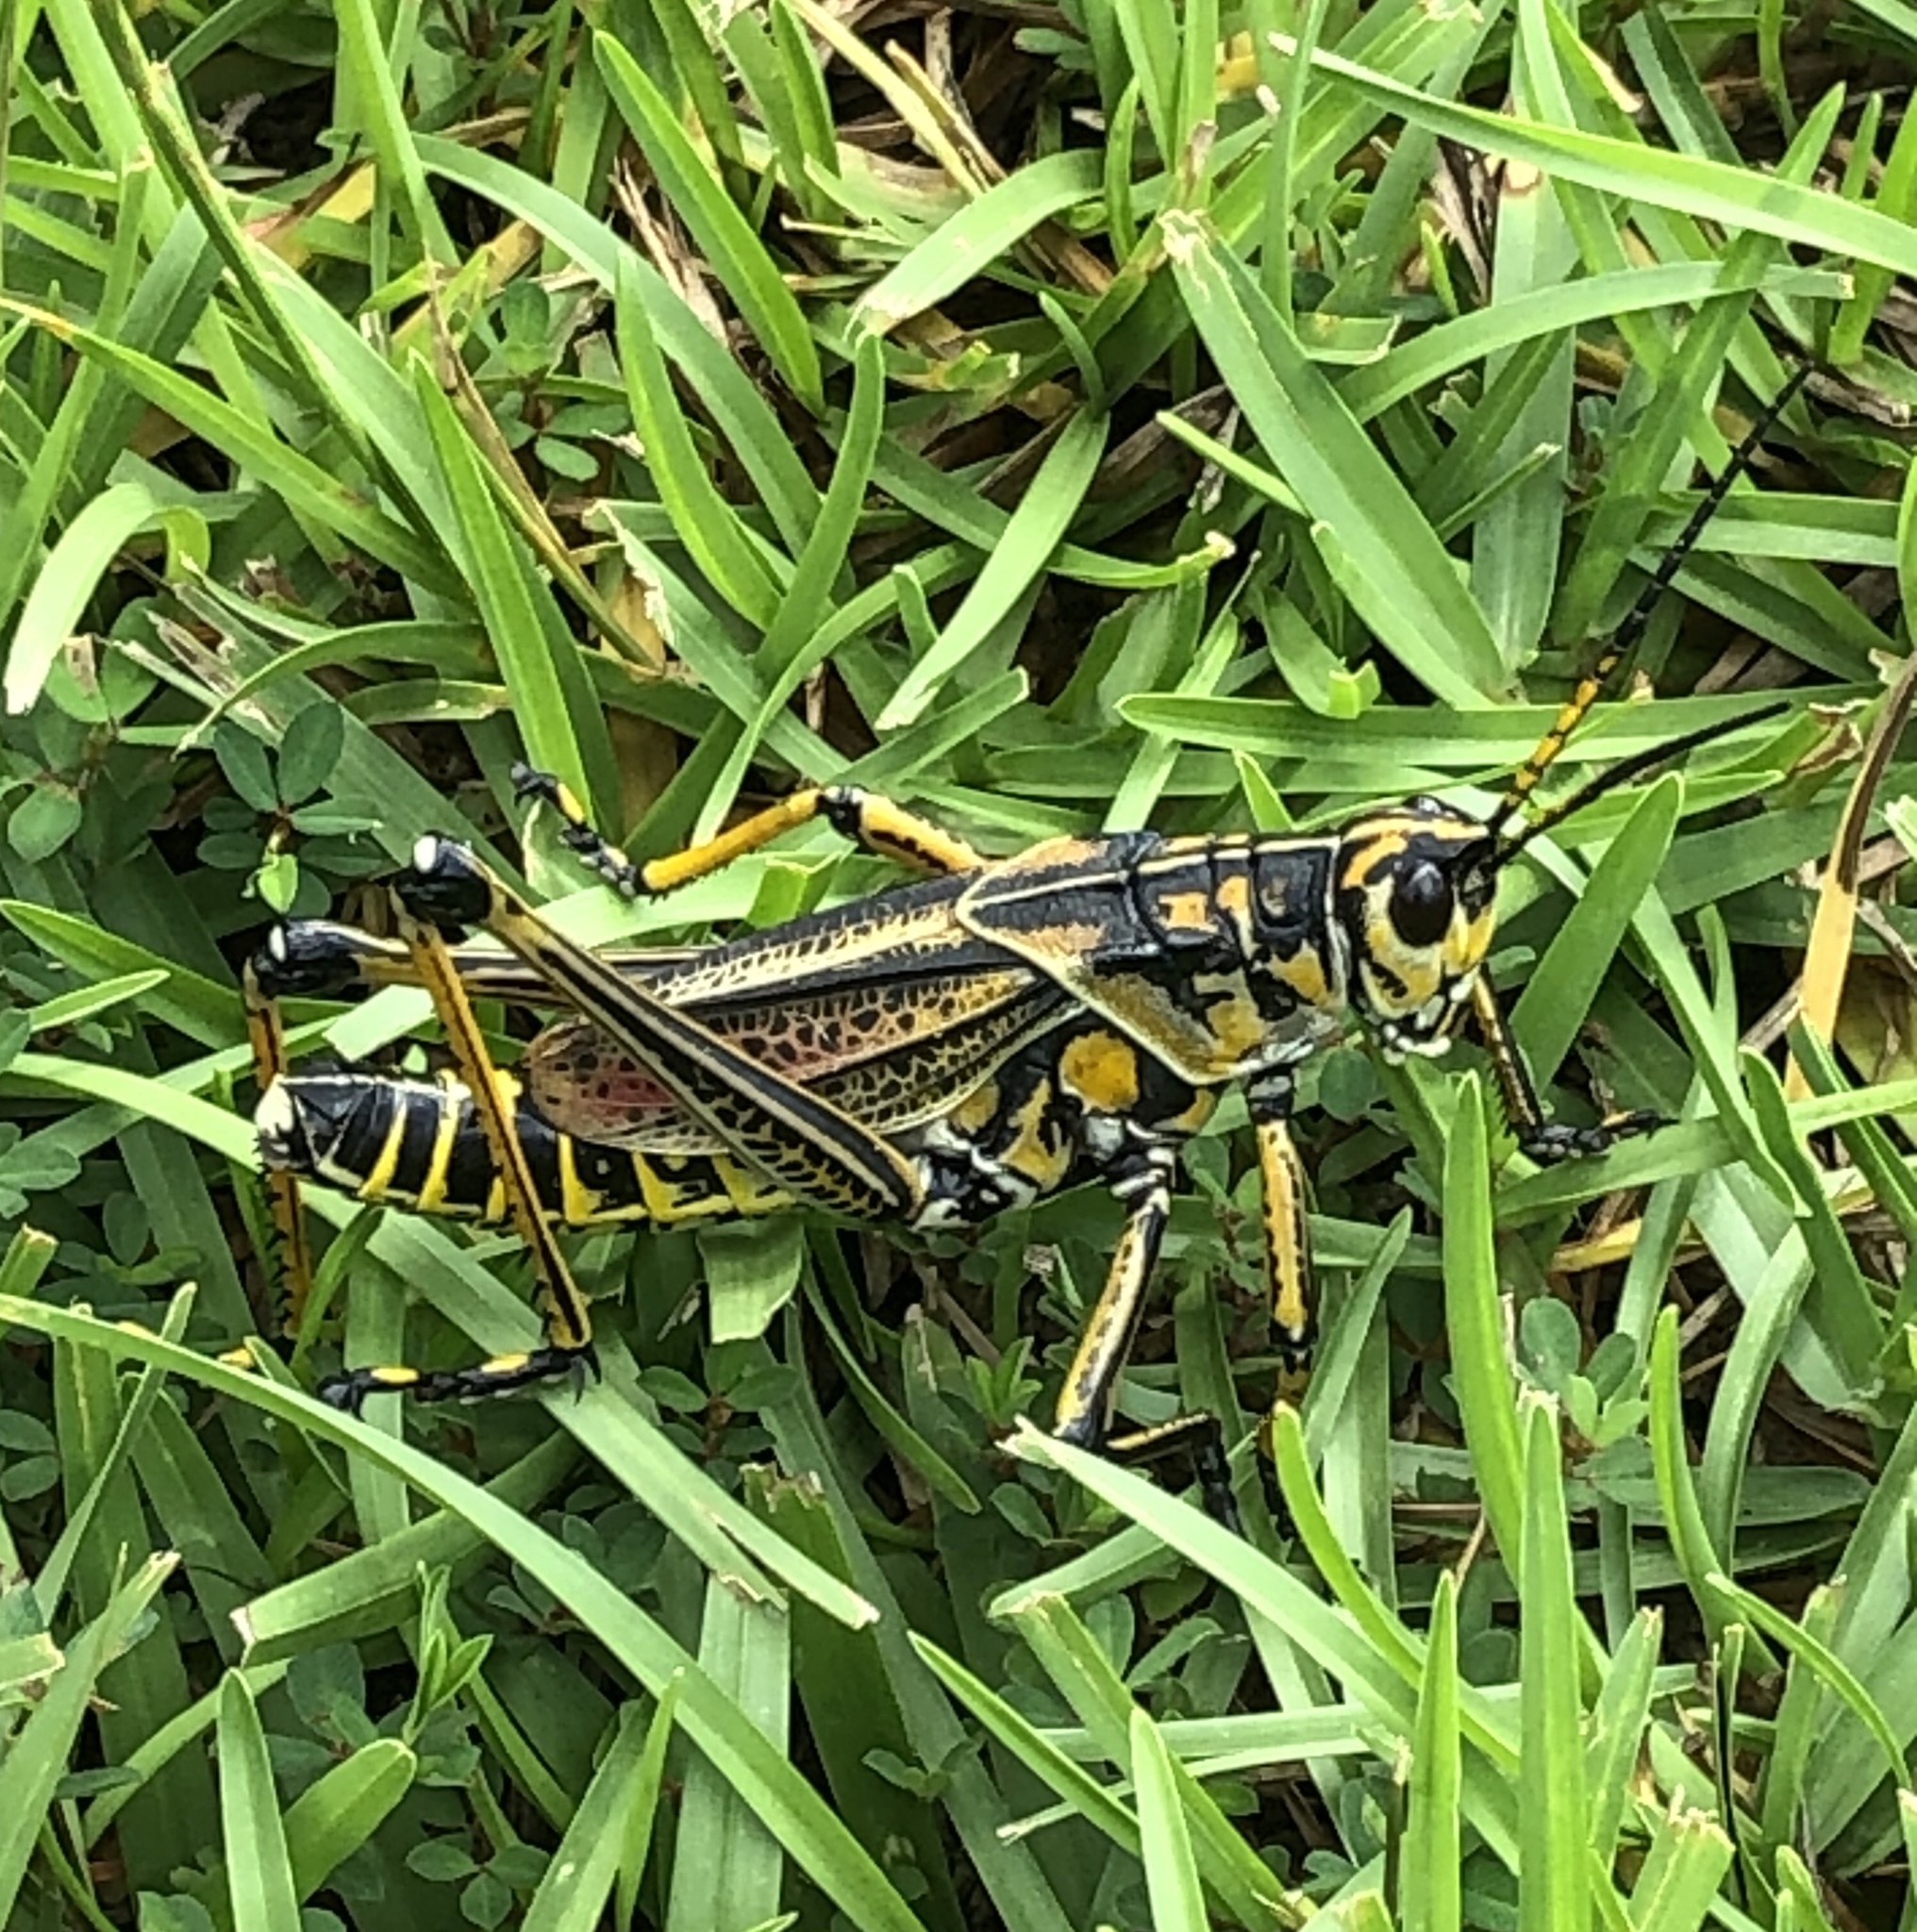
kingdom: Animalia
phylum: Arthropoda
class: Insecta
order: Orthoptera
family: Romaleidae
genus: Romalea
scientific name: Romalea microptera
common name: Eastern lubber grasshopper
